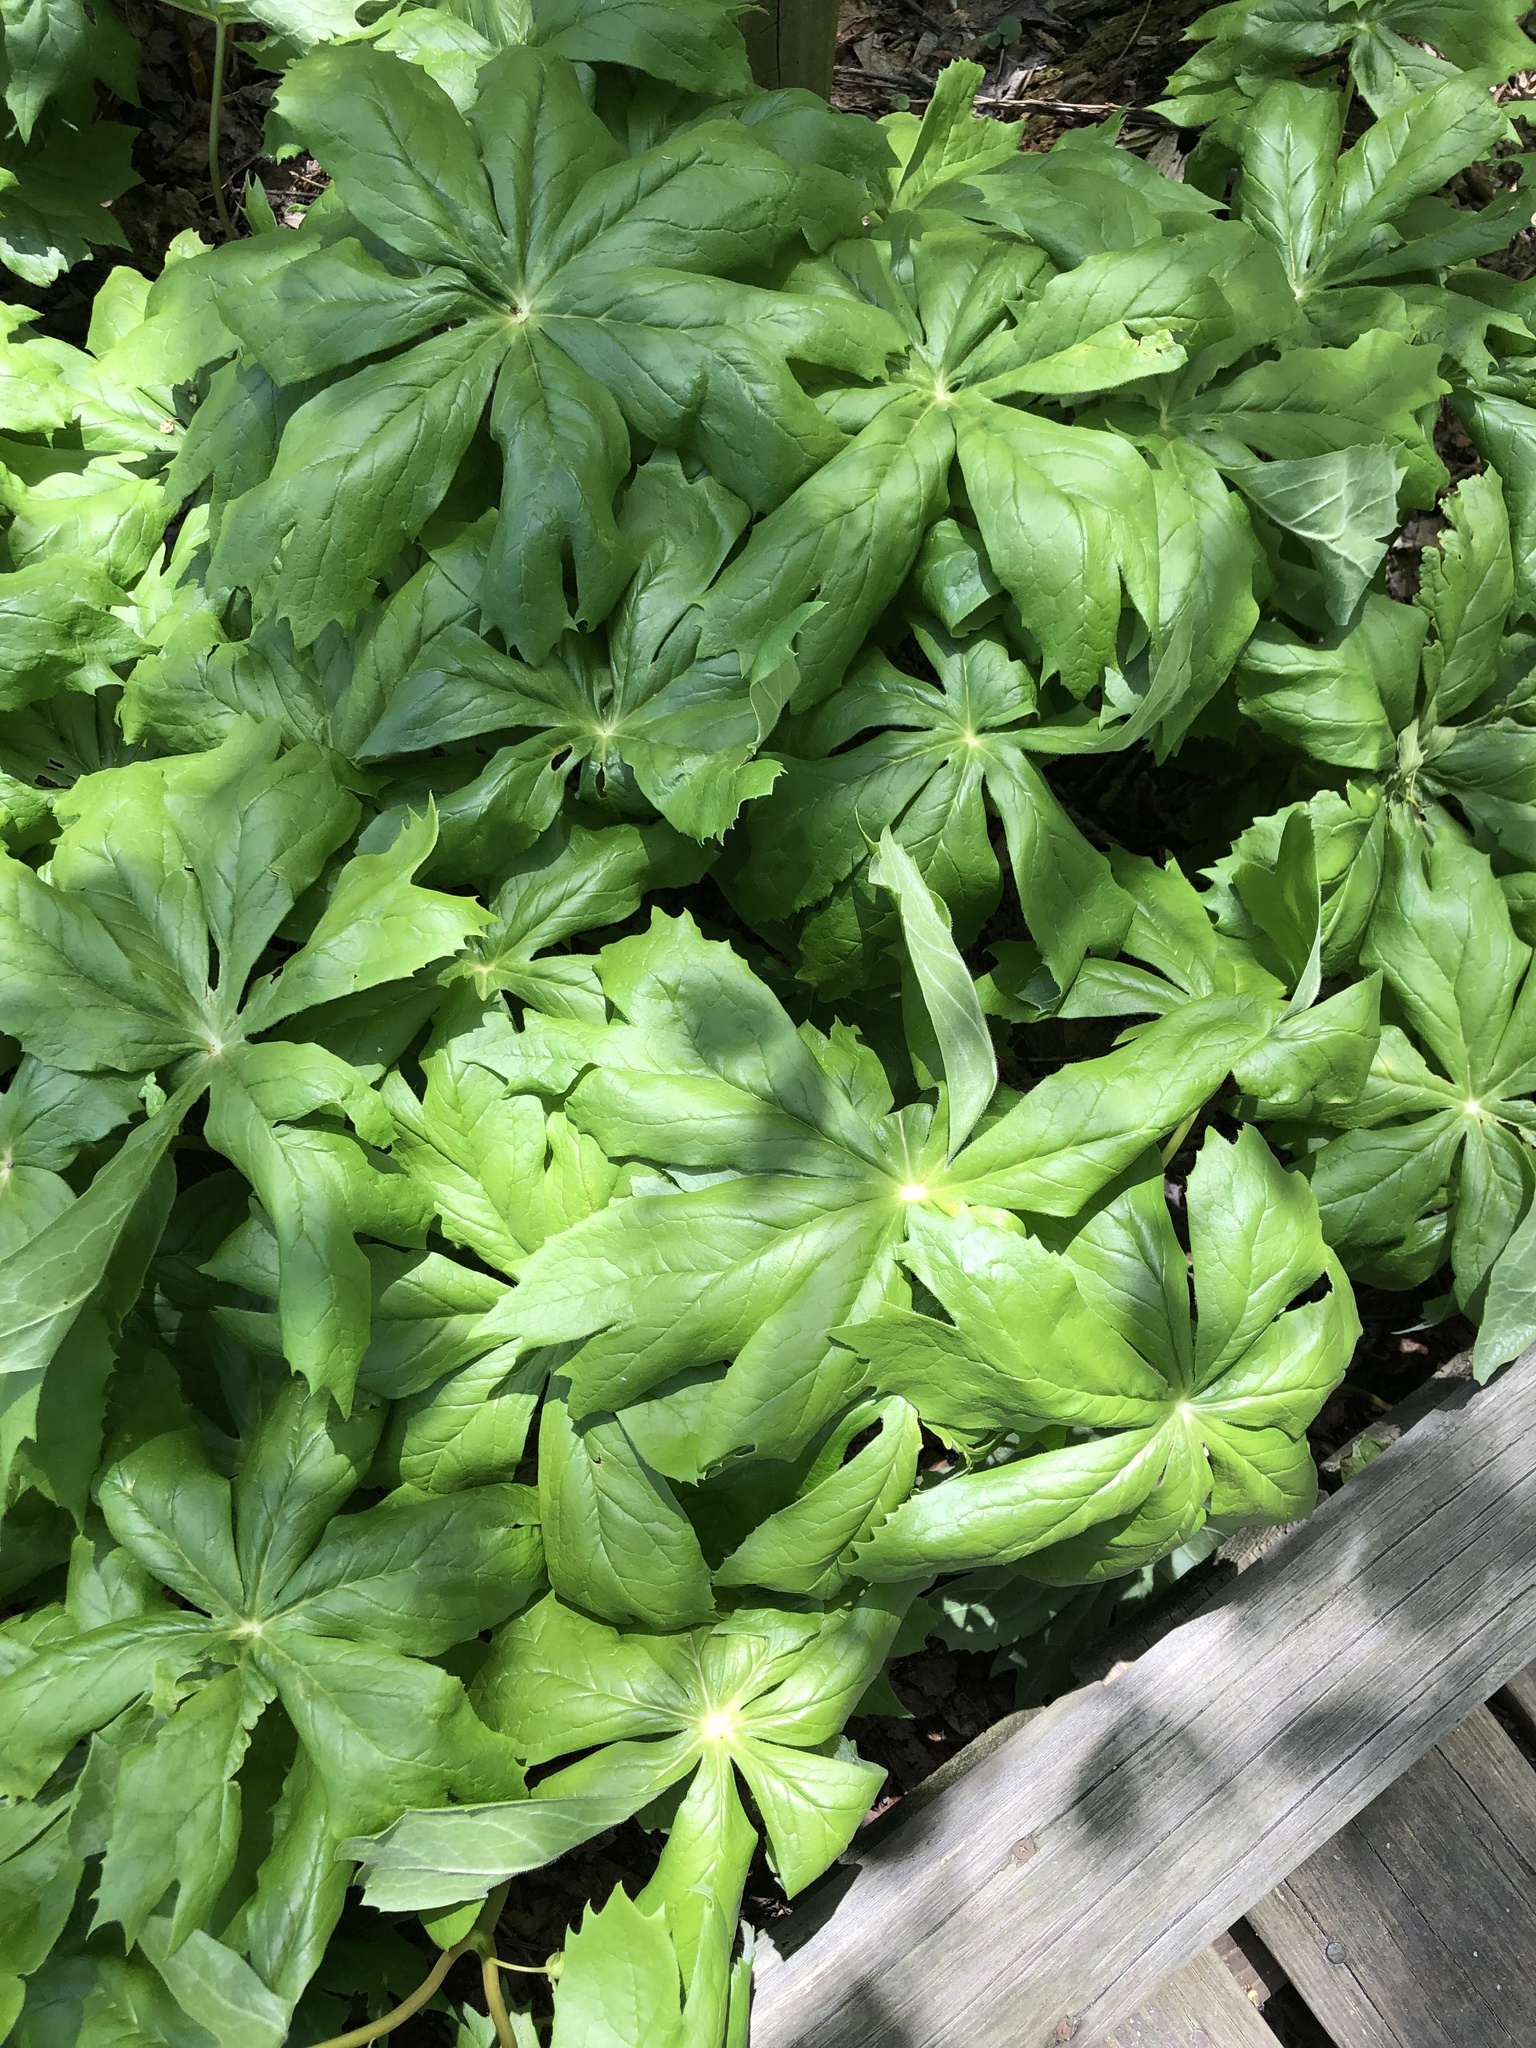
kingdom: Plantae
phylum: Tracheophyta
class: Magnoliopsida
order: Ranunculales
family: Berberidaceae
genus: Podophyllum
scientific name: Podophyllum peltatum
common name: Wild mandrake
